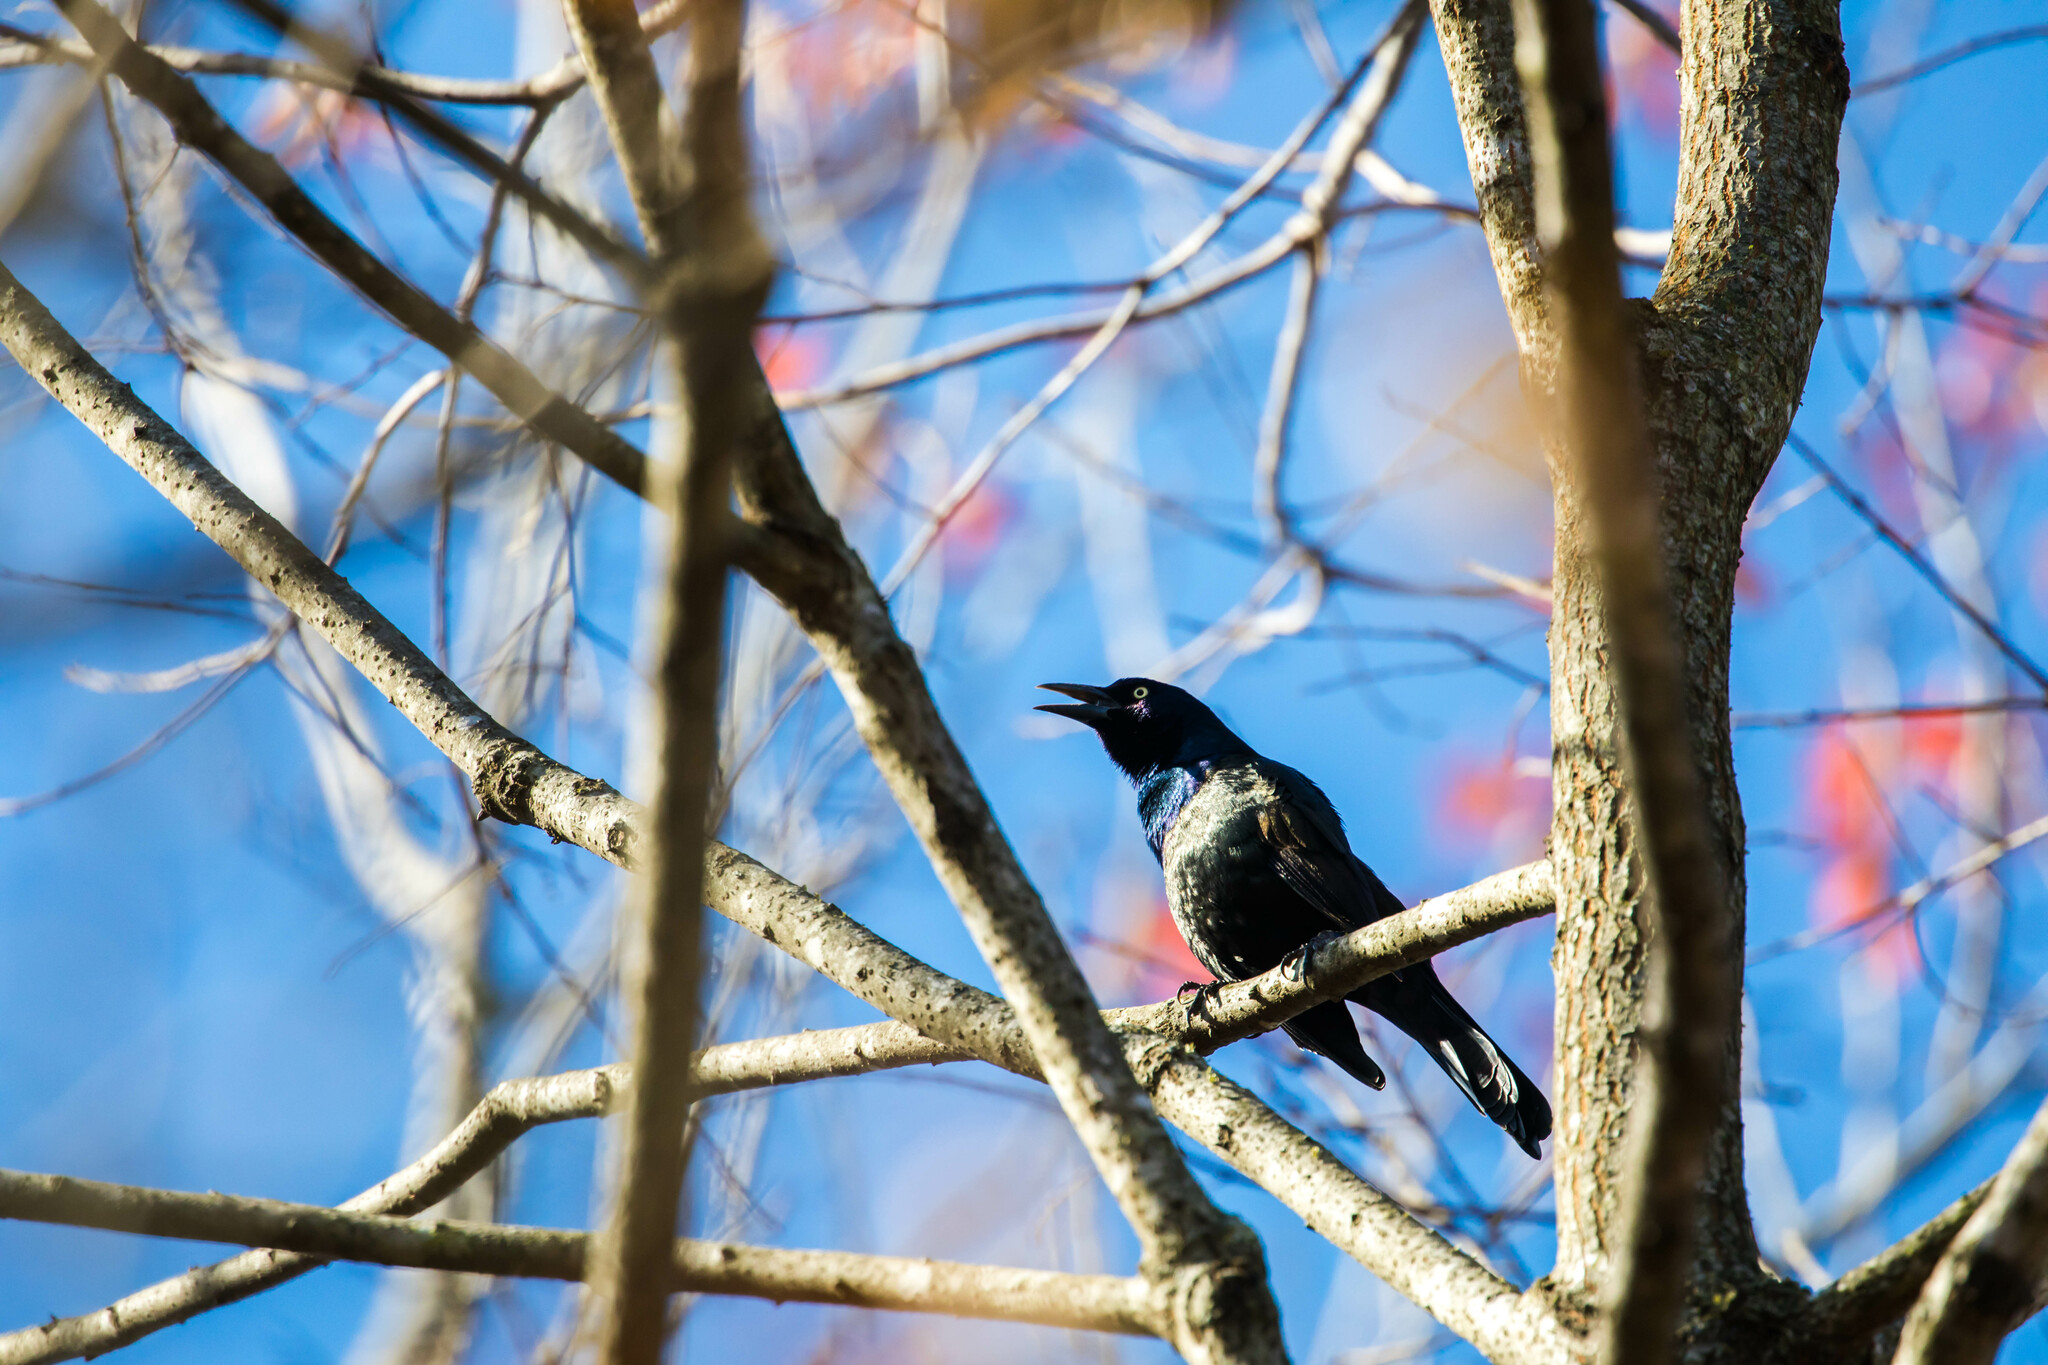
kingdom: Animalia
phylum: Chordata
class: Aves
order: Passeriformes
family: Icteridae
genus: Quiscalus
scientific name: Quiscalus quiscula
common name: Common grackle
